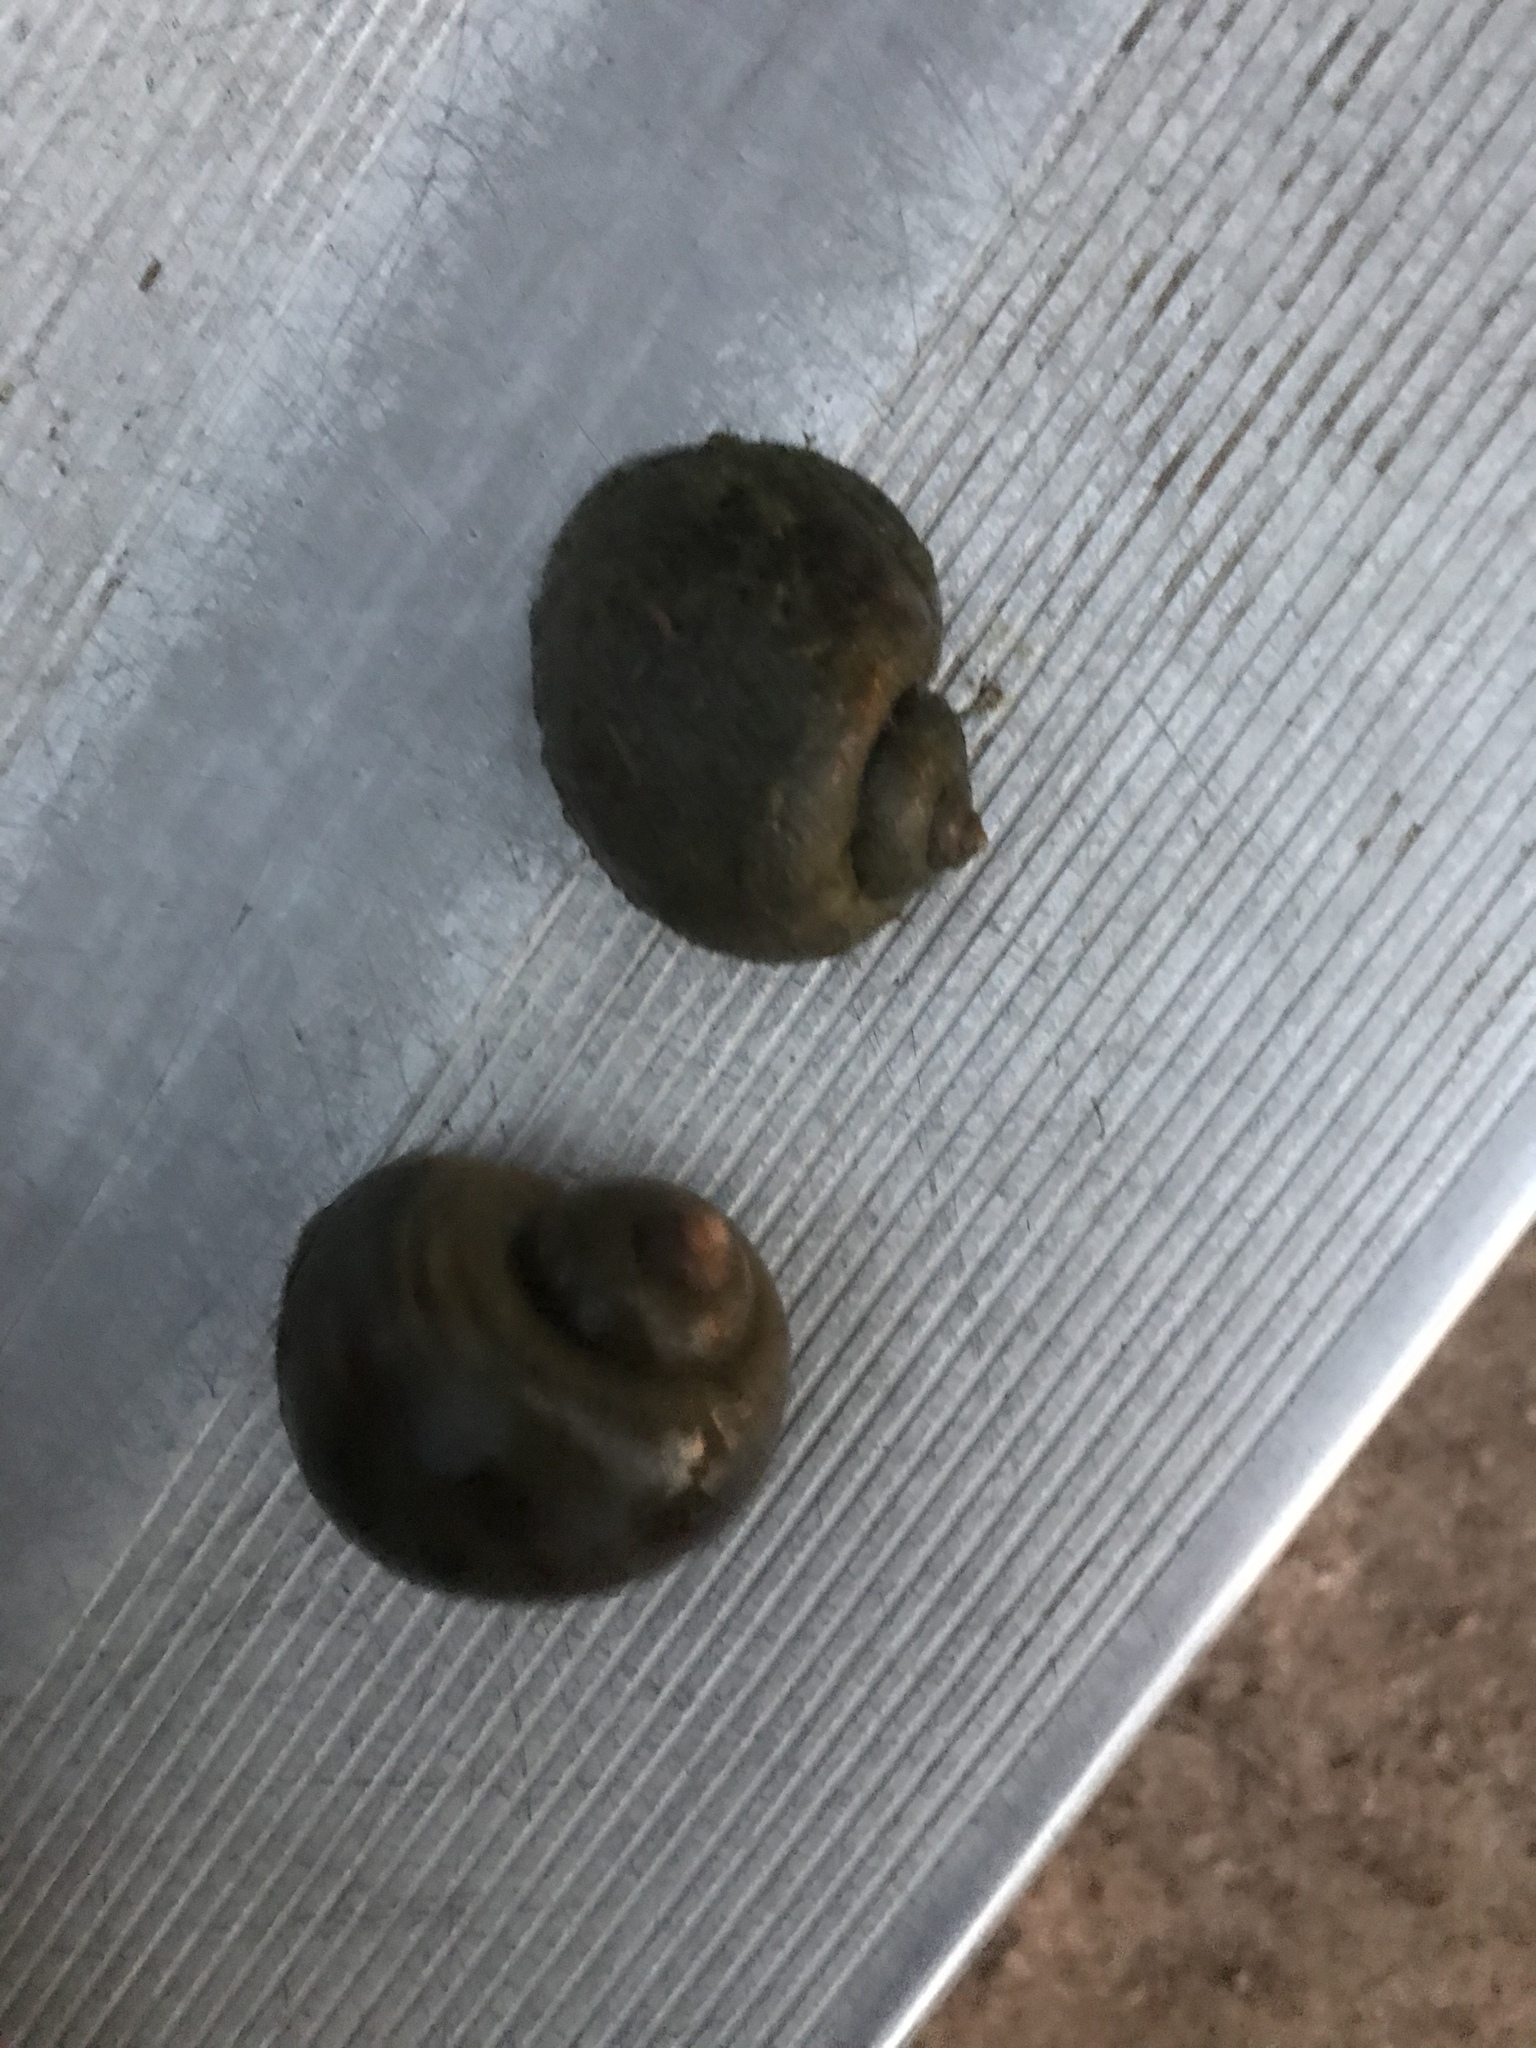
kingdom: Animalia
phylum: Mollusca
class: Gastropoda
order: Architaenioglossa
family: Ampullariidae
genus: Pomacea
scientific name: Pomacea canaliculata
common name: Channeled applesnail
